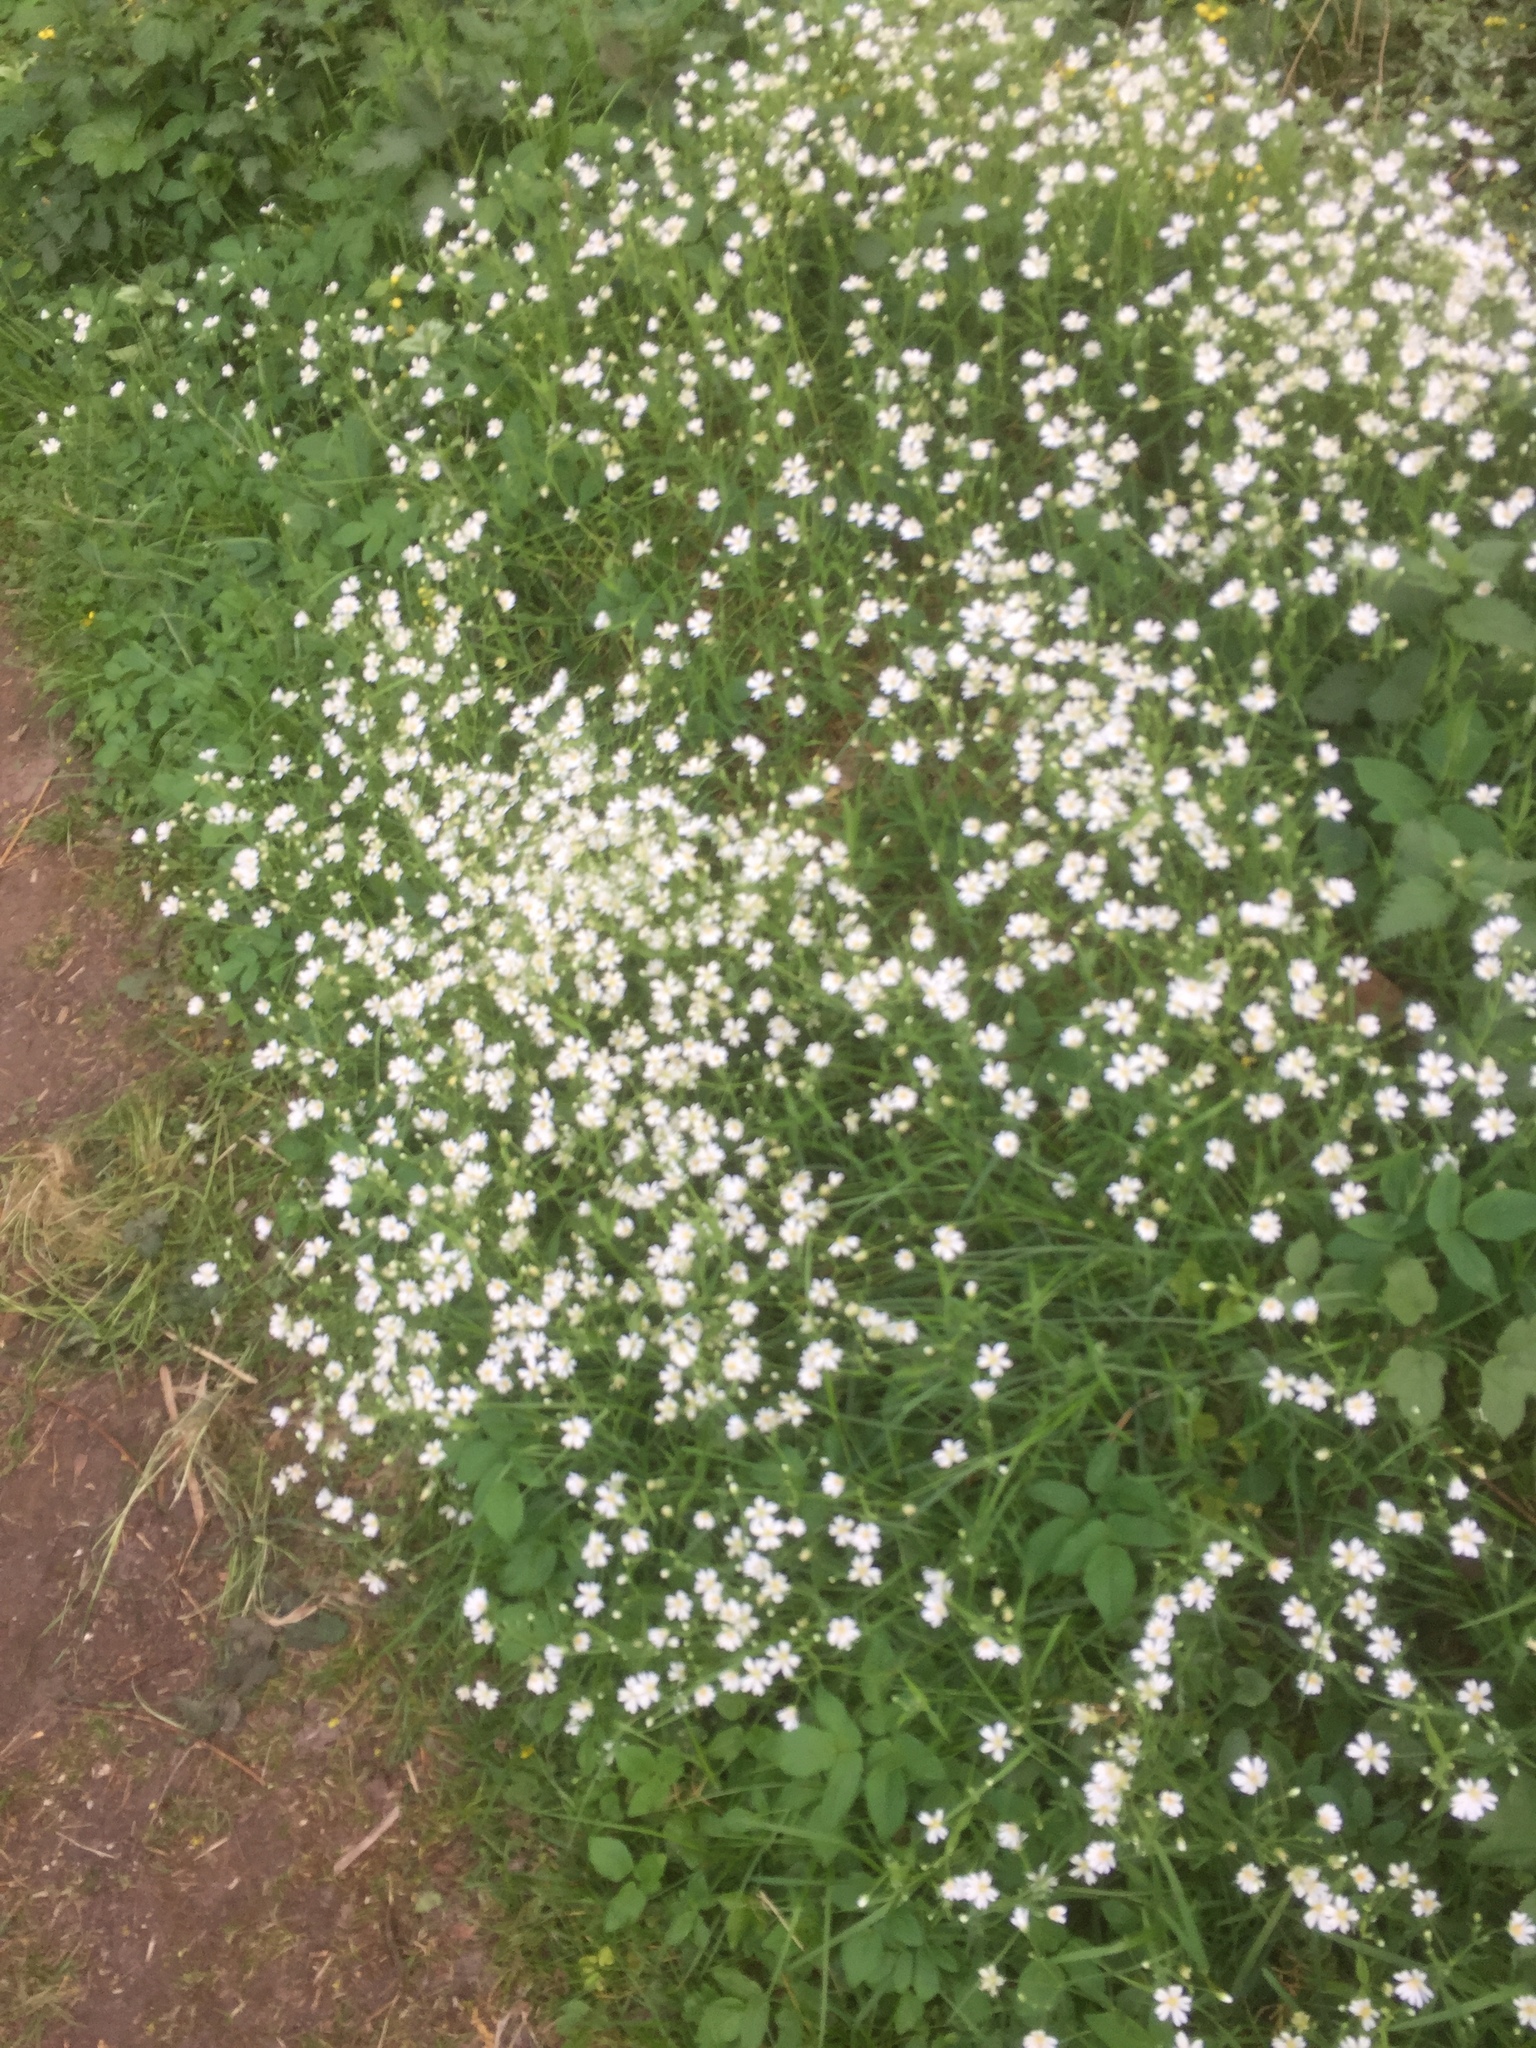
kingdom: Plantae
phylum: Tracheophyta
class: Magnoliopsida
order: Caryophyllales
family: Caryophyllaceae
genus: Rabelera
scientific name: Rabelera holostea
